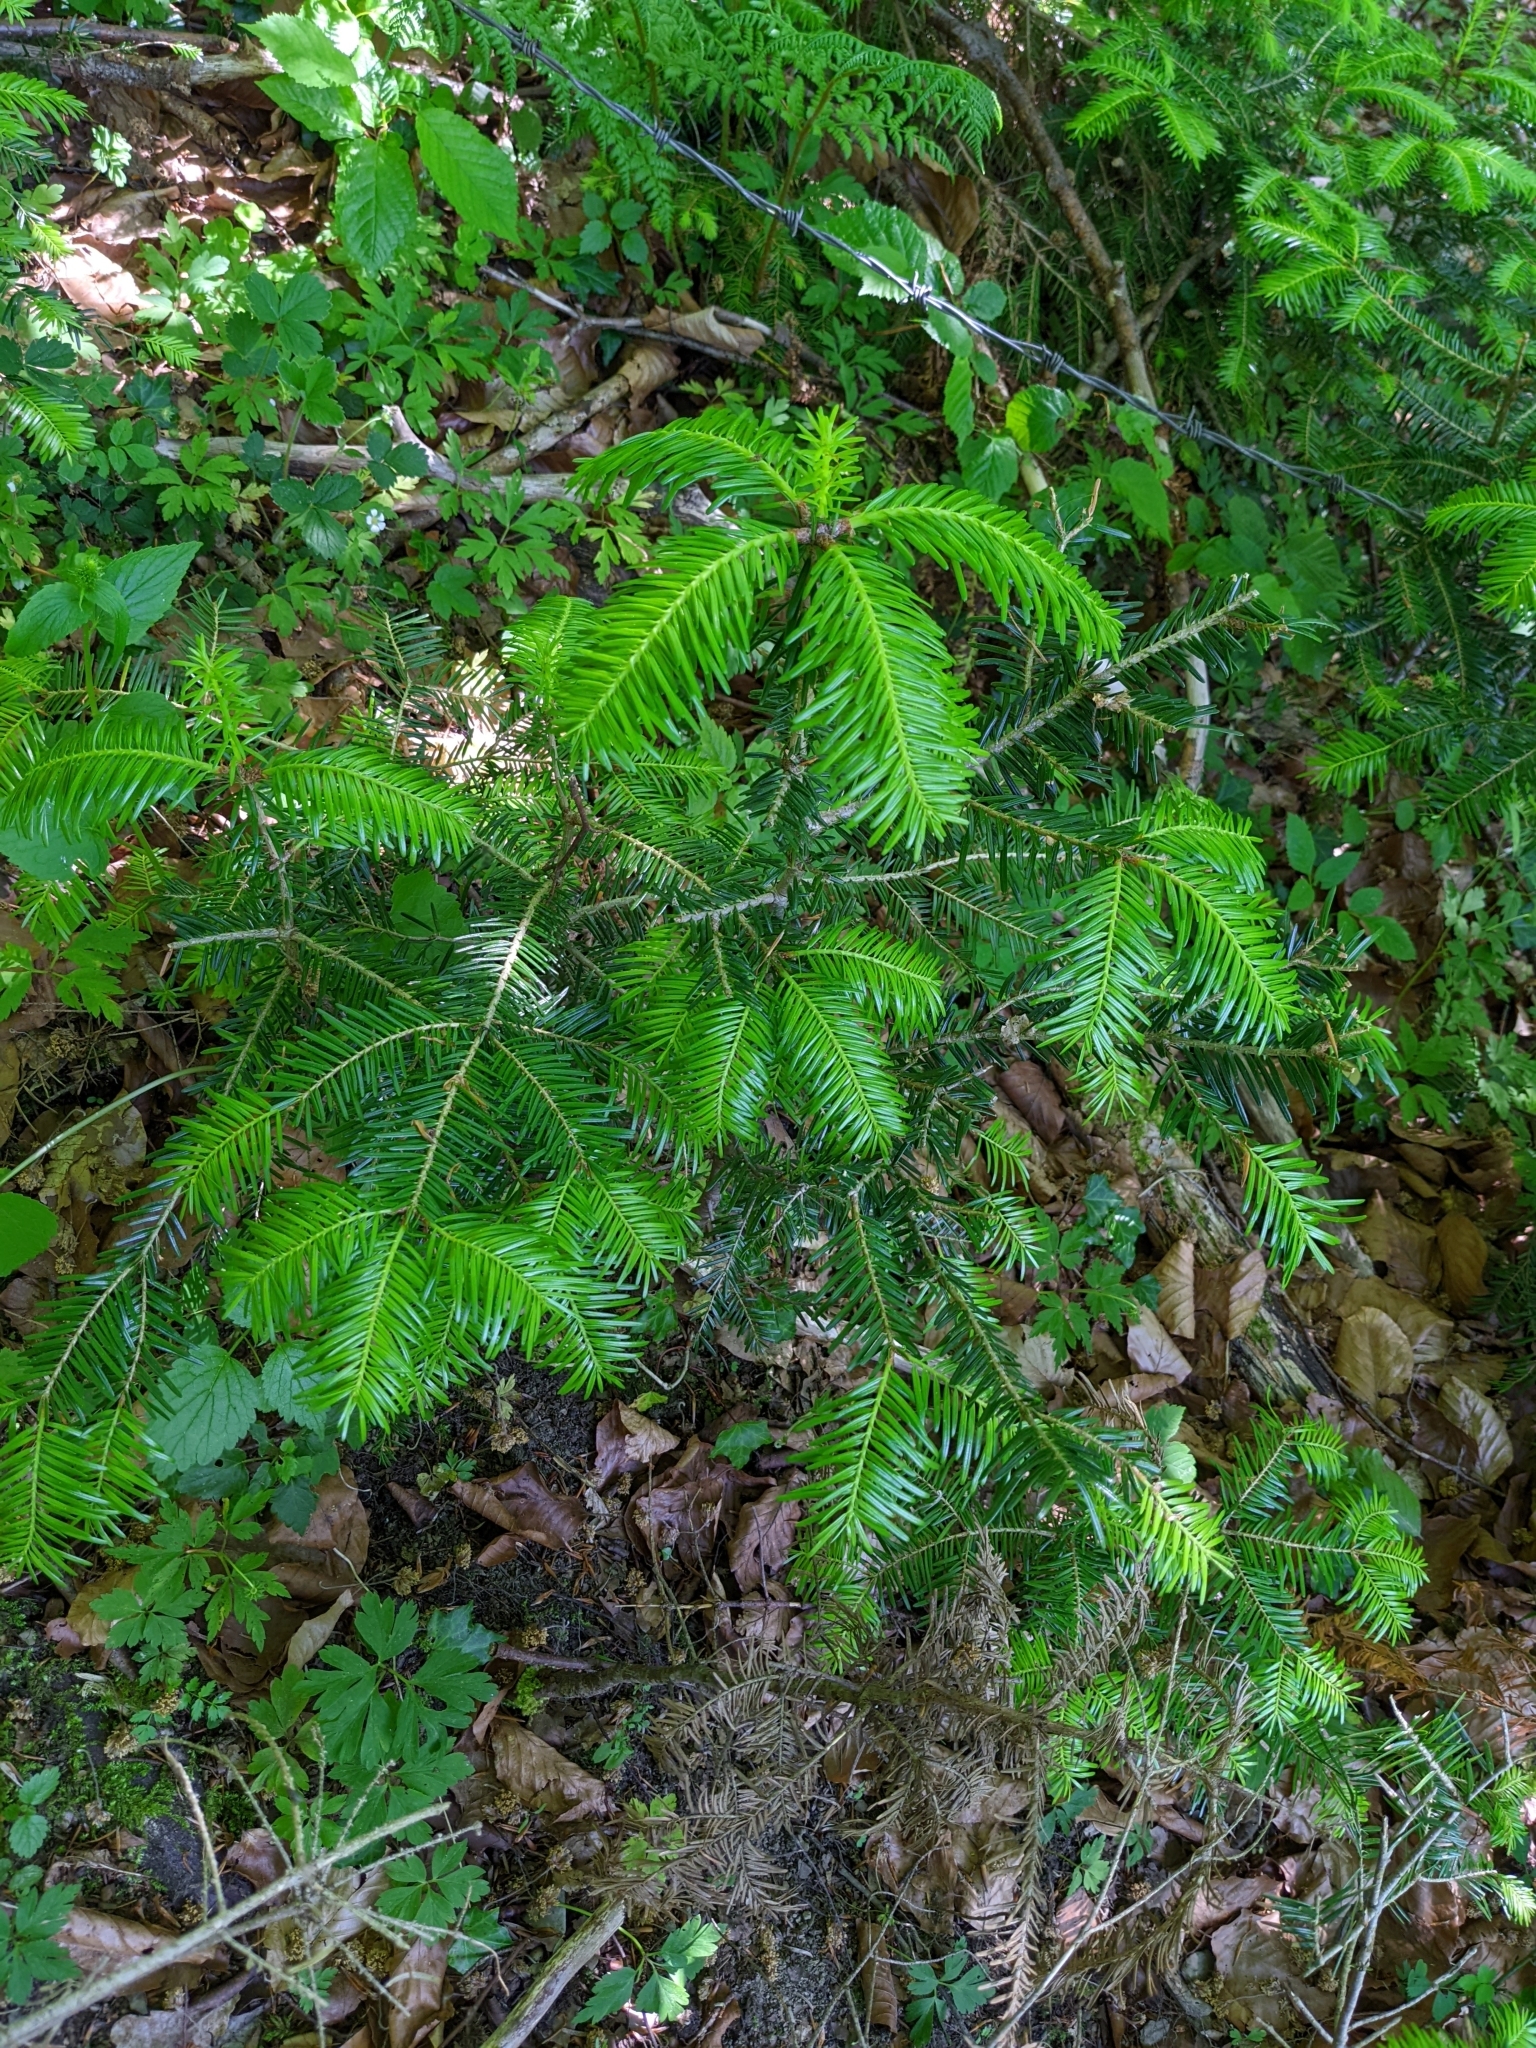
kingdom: Plantae
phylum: Tracheophyta
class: Pinopsida
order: Pinales
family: Pinaceae
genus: Abies
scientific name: Abies alba
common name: Silver fir
